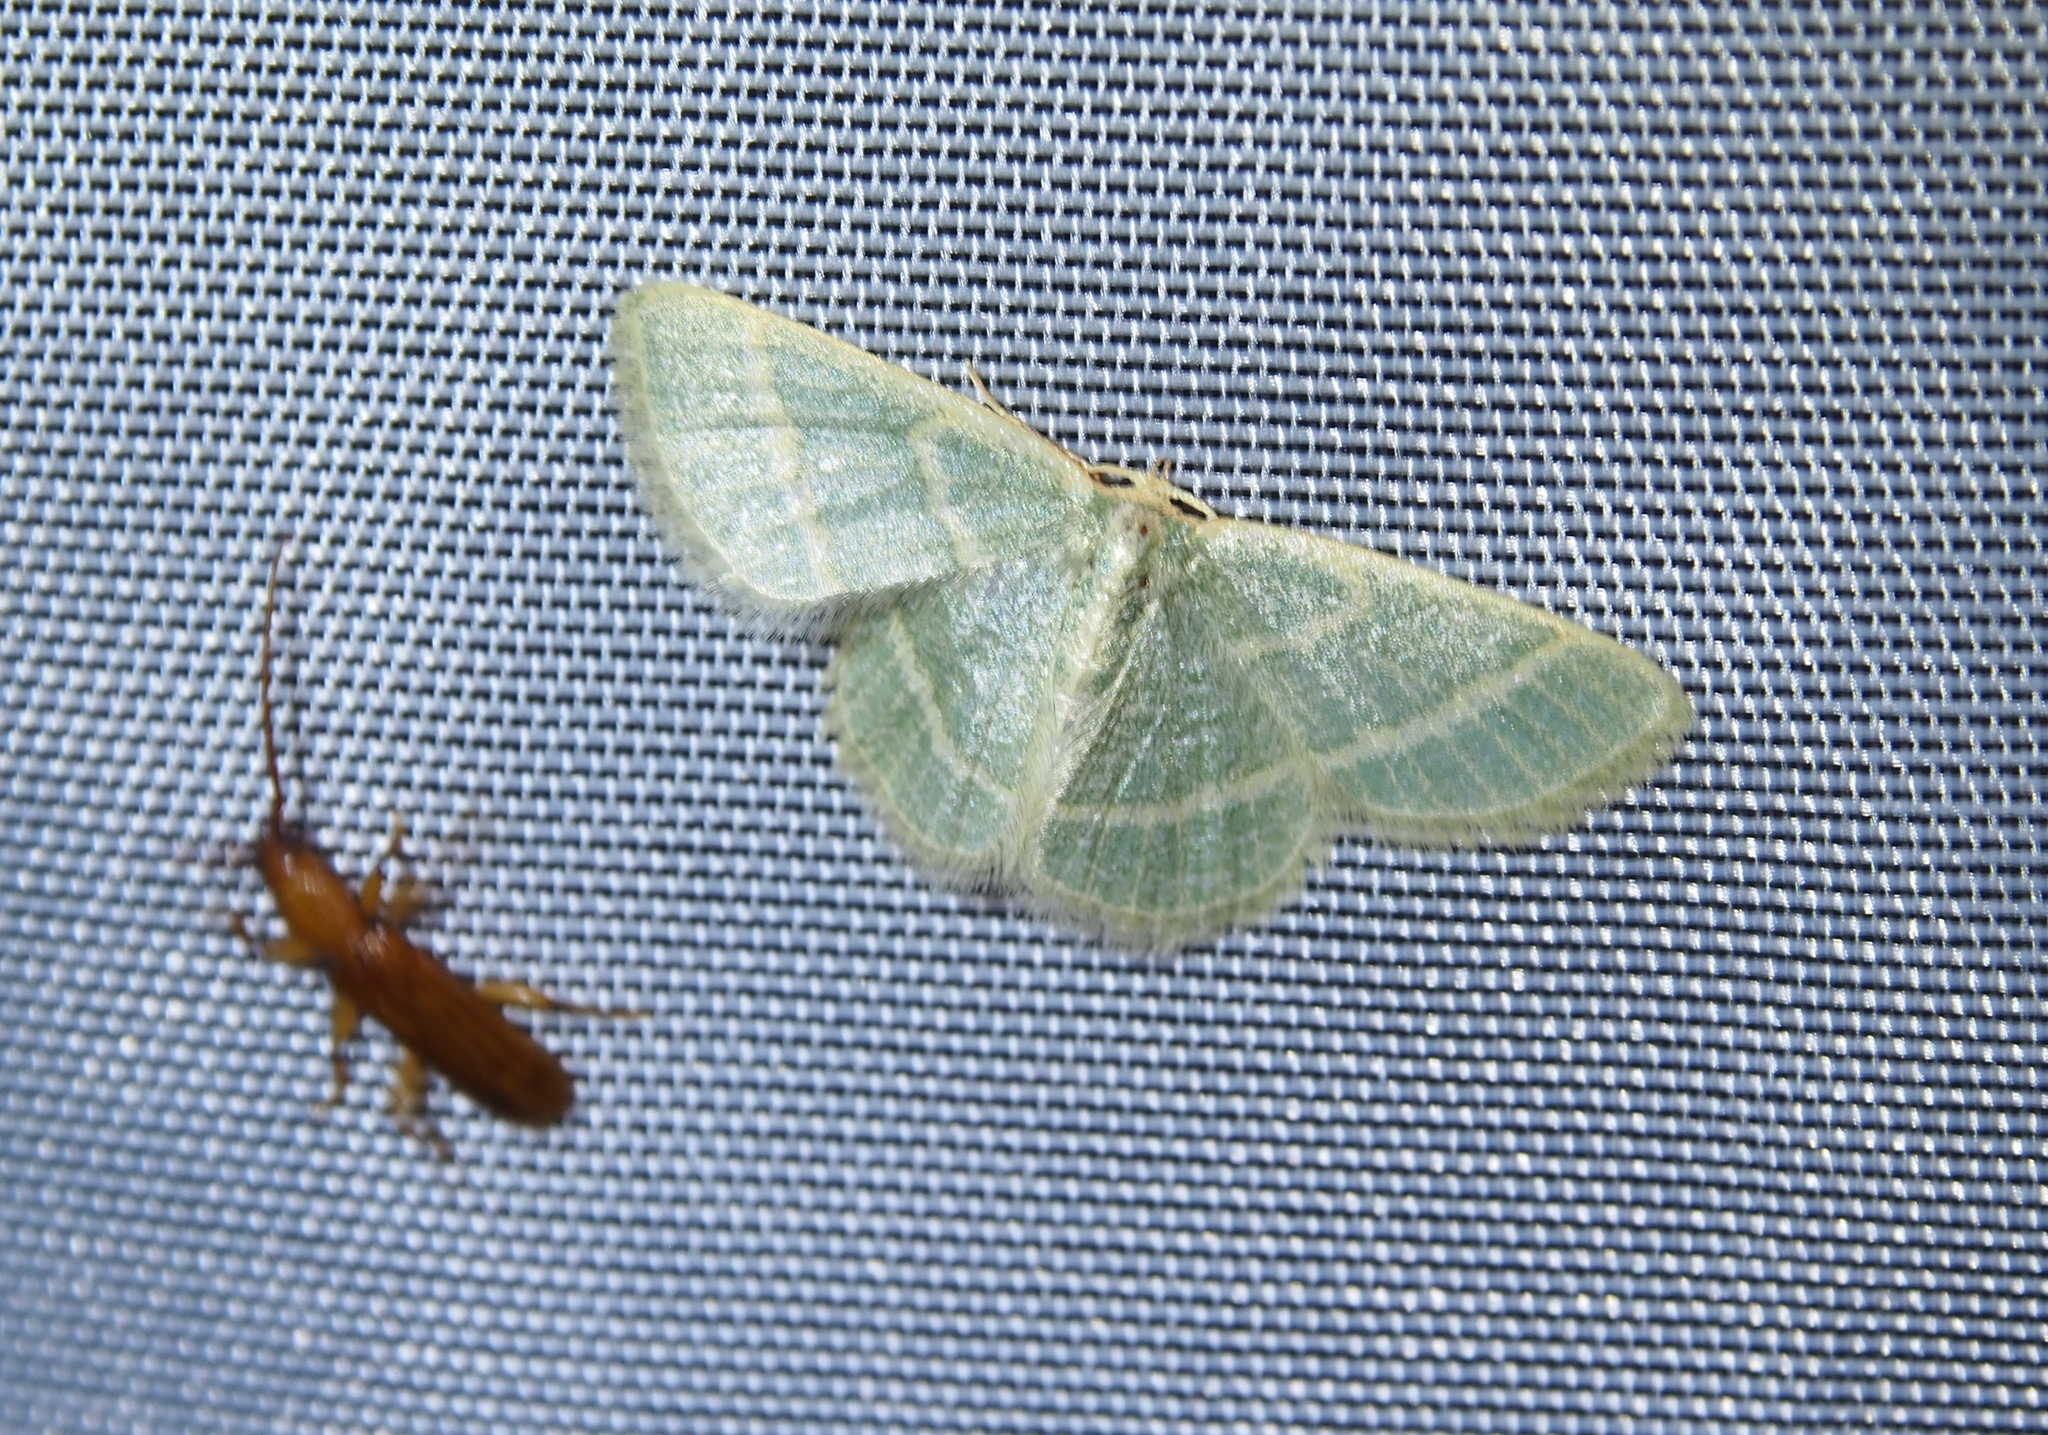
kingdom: Animalia
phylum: Arthropoda
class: Insecta
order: Lepidoptera
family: Geometridae
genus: Chlorochlamys
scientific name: Chlorochlamys chloroleucaria
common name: Blackberry looper
